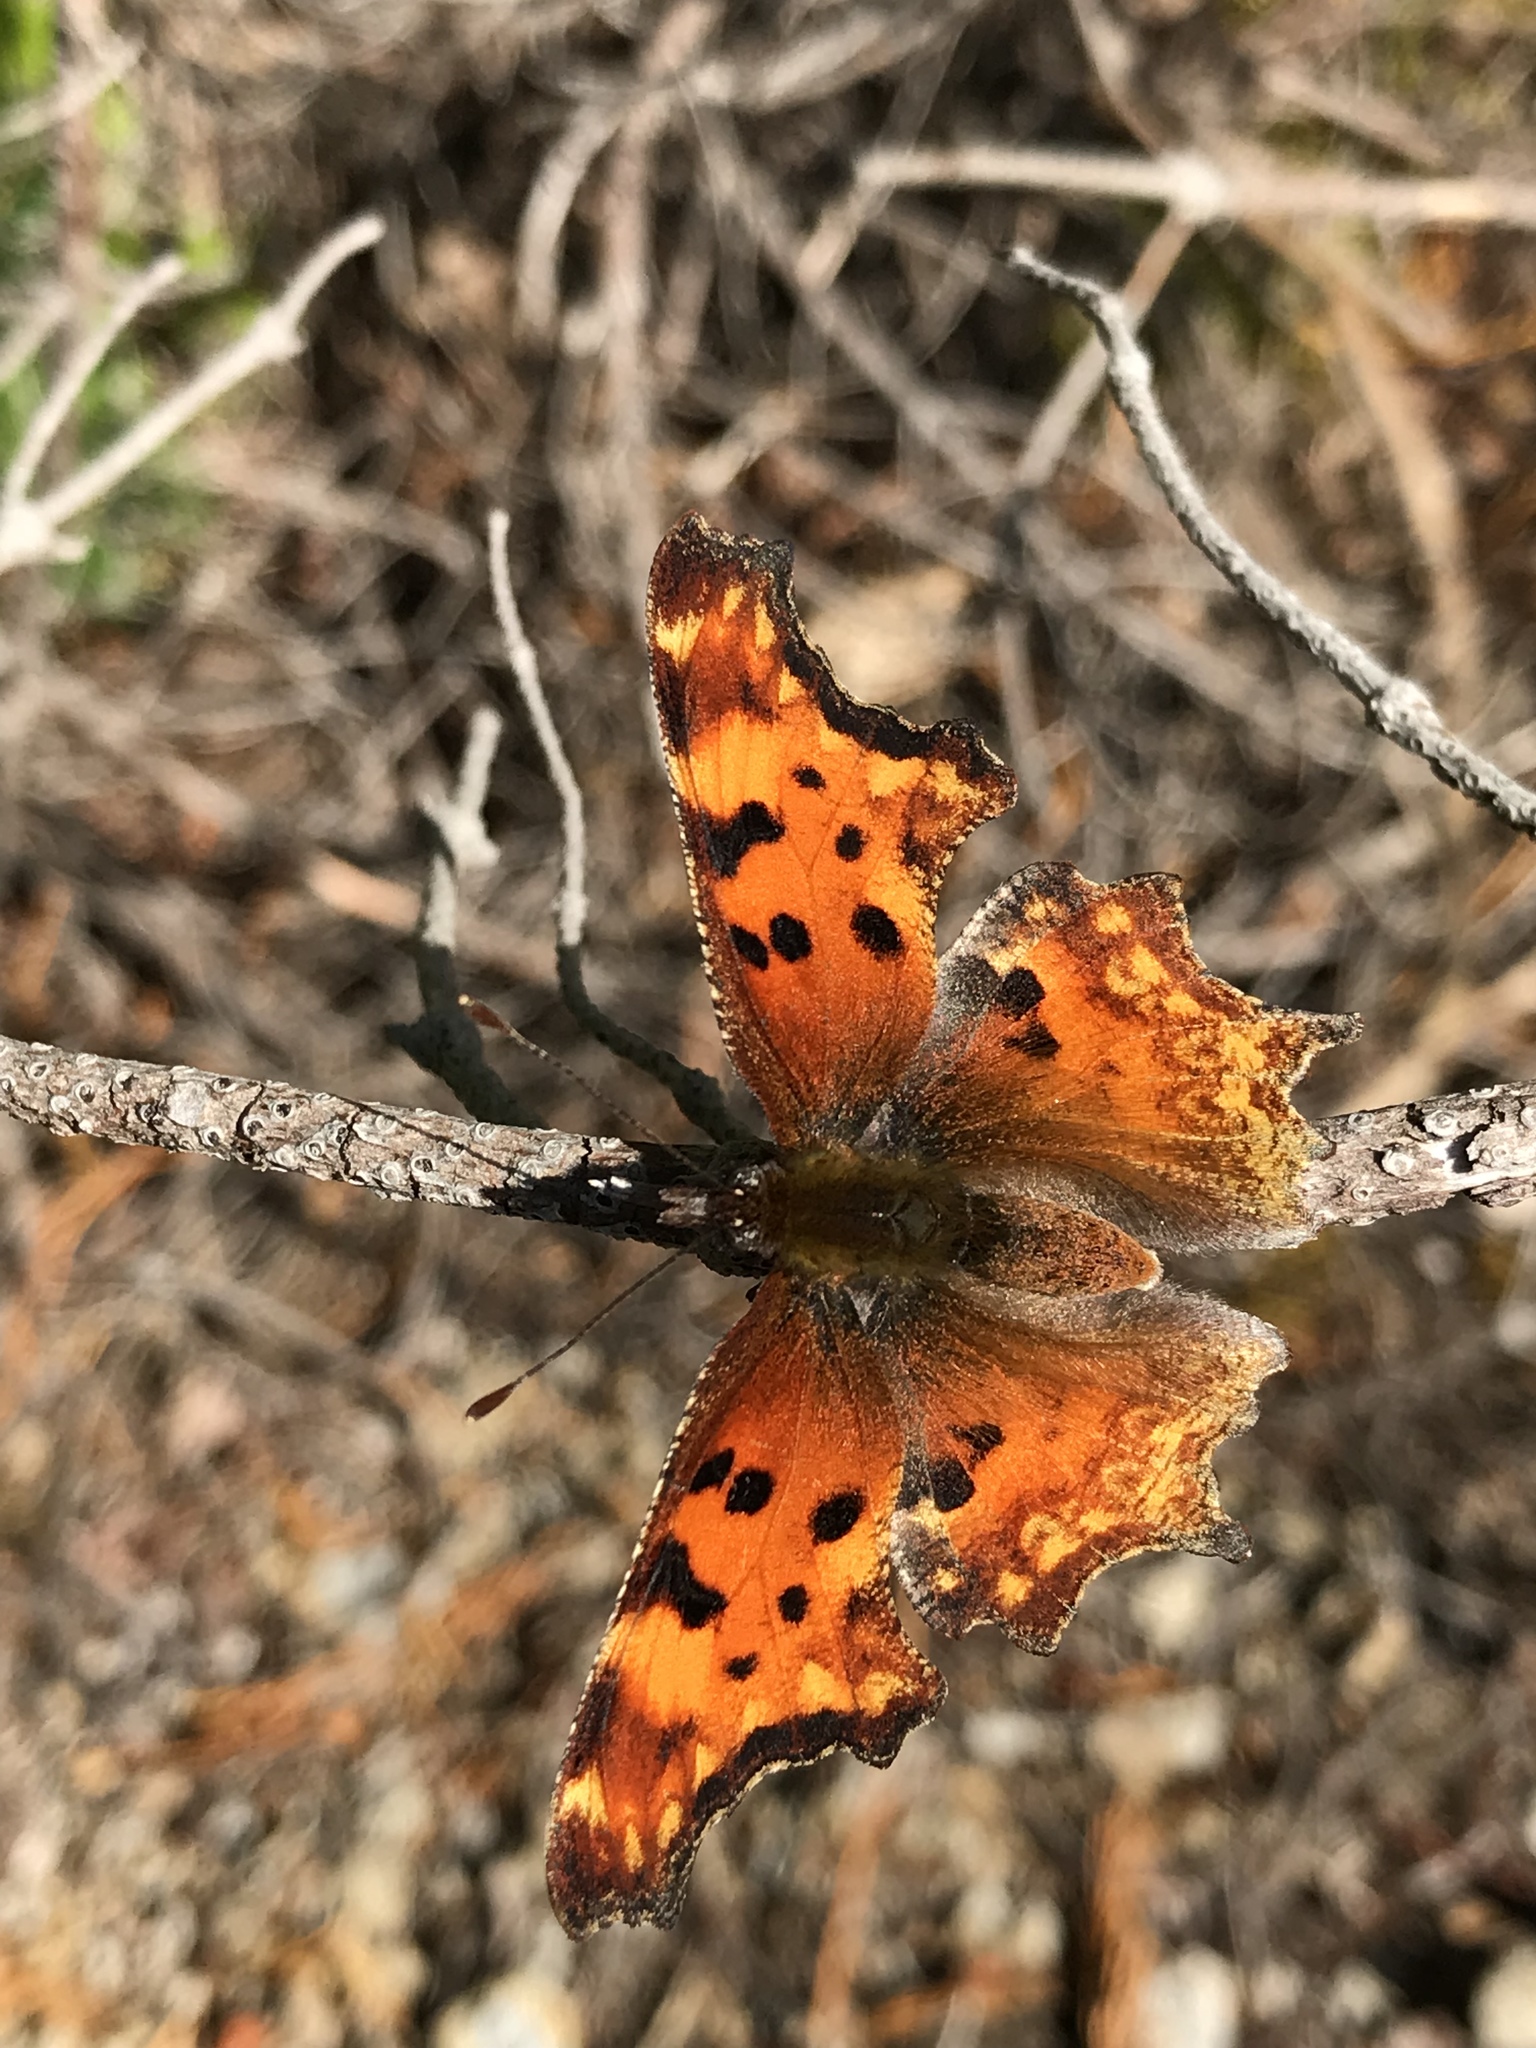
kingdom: Animalia
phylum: Arthropoda
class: Insecta
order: Lepidoptera
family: Nymphalidae
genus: Polygonia
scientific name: Polygonia gracilis
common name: Hoary comma
